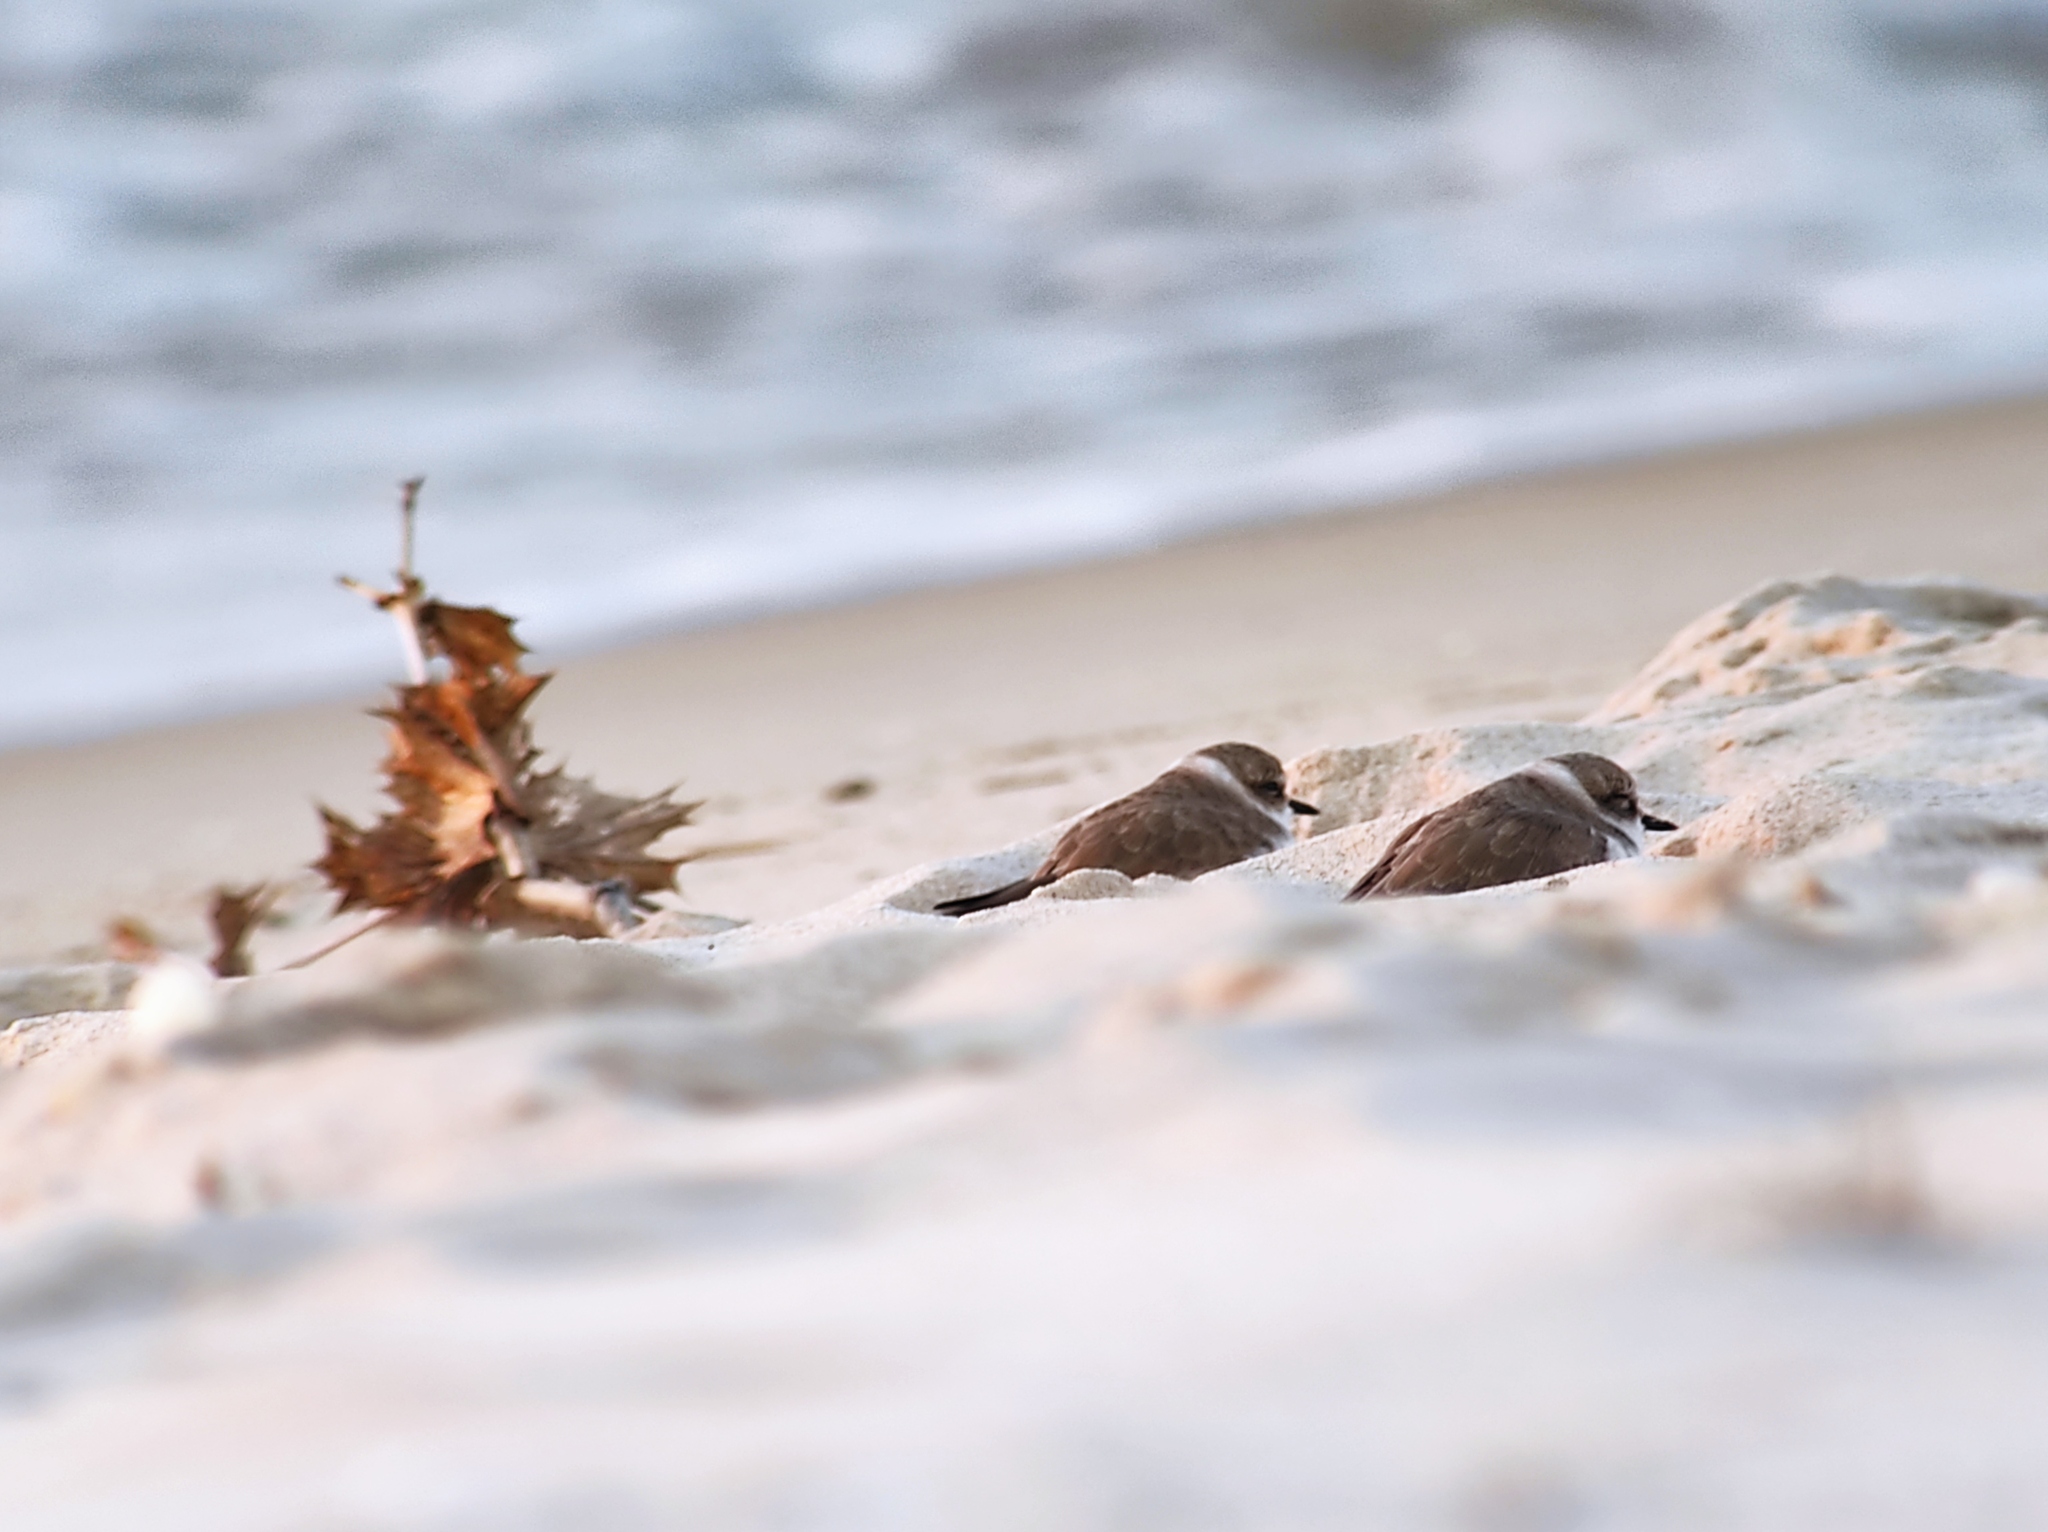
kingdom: Animalia
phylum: Chordata
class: Aves
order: Charadriiformes
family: Charadriidae
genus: Charadrius
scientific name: Charadrius alexandrinus
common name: Kentish plover
